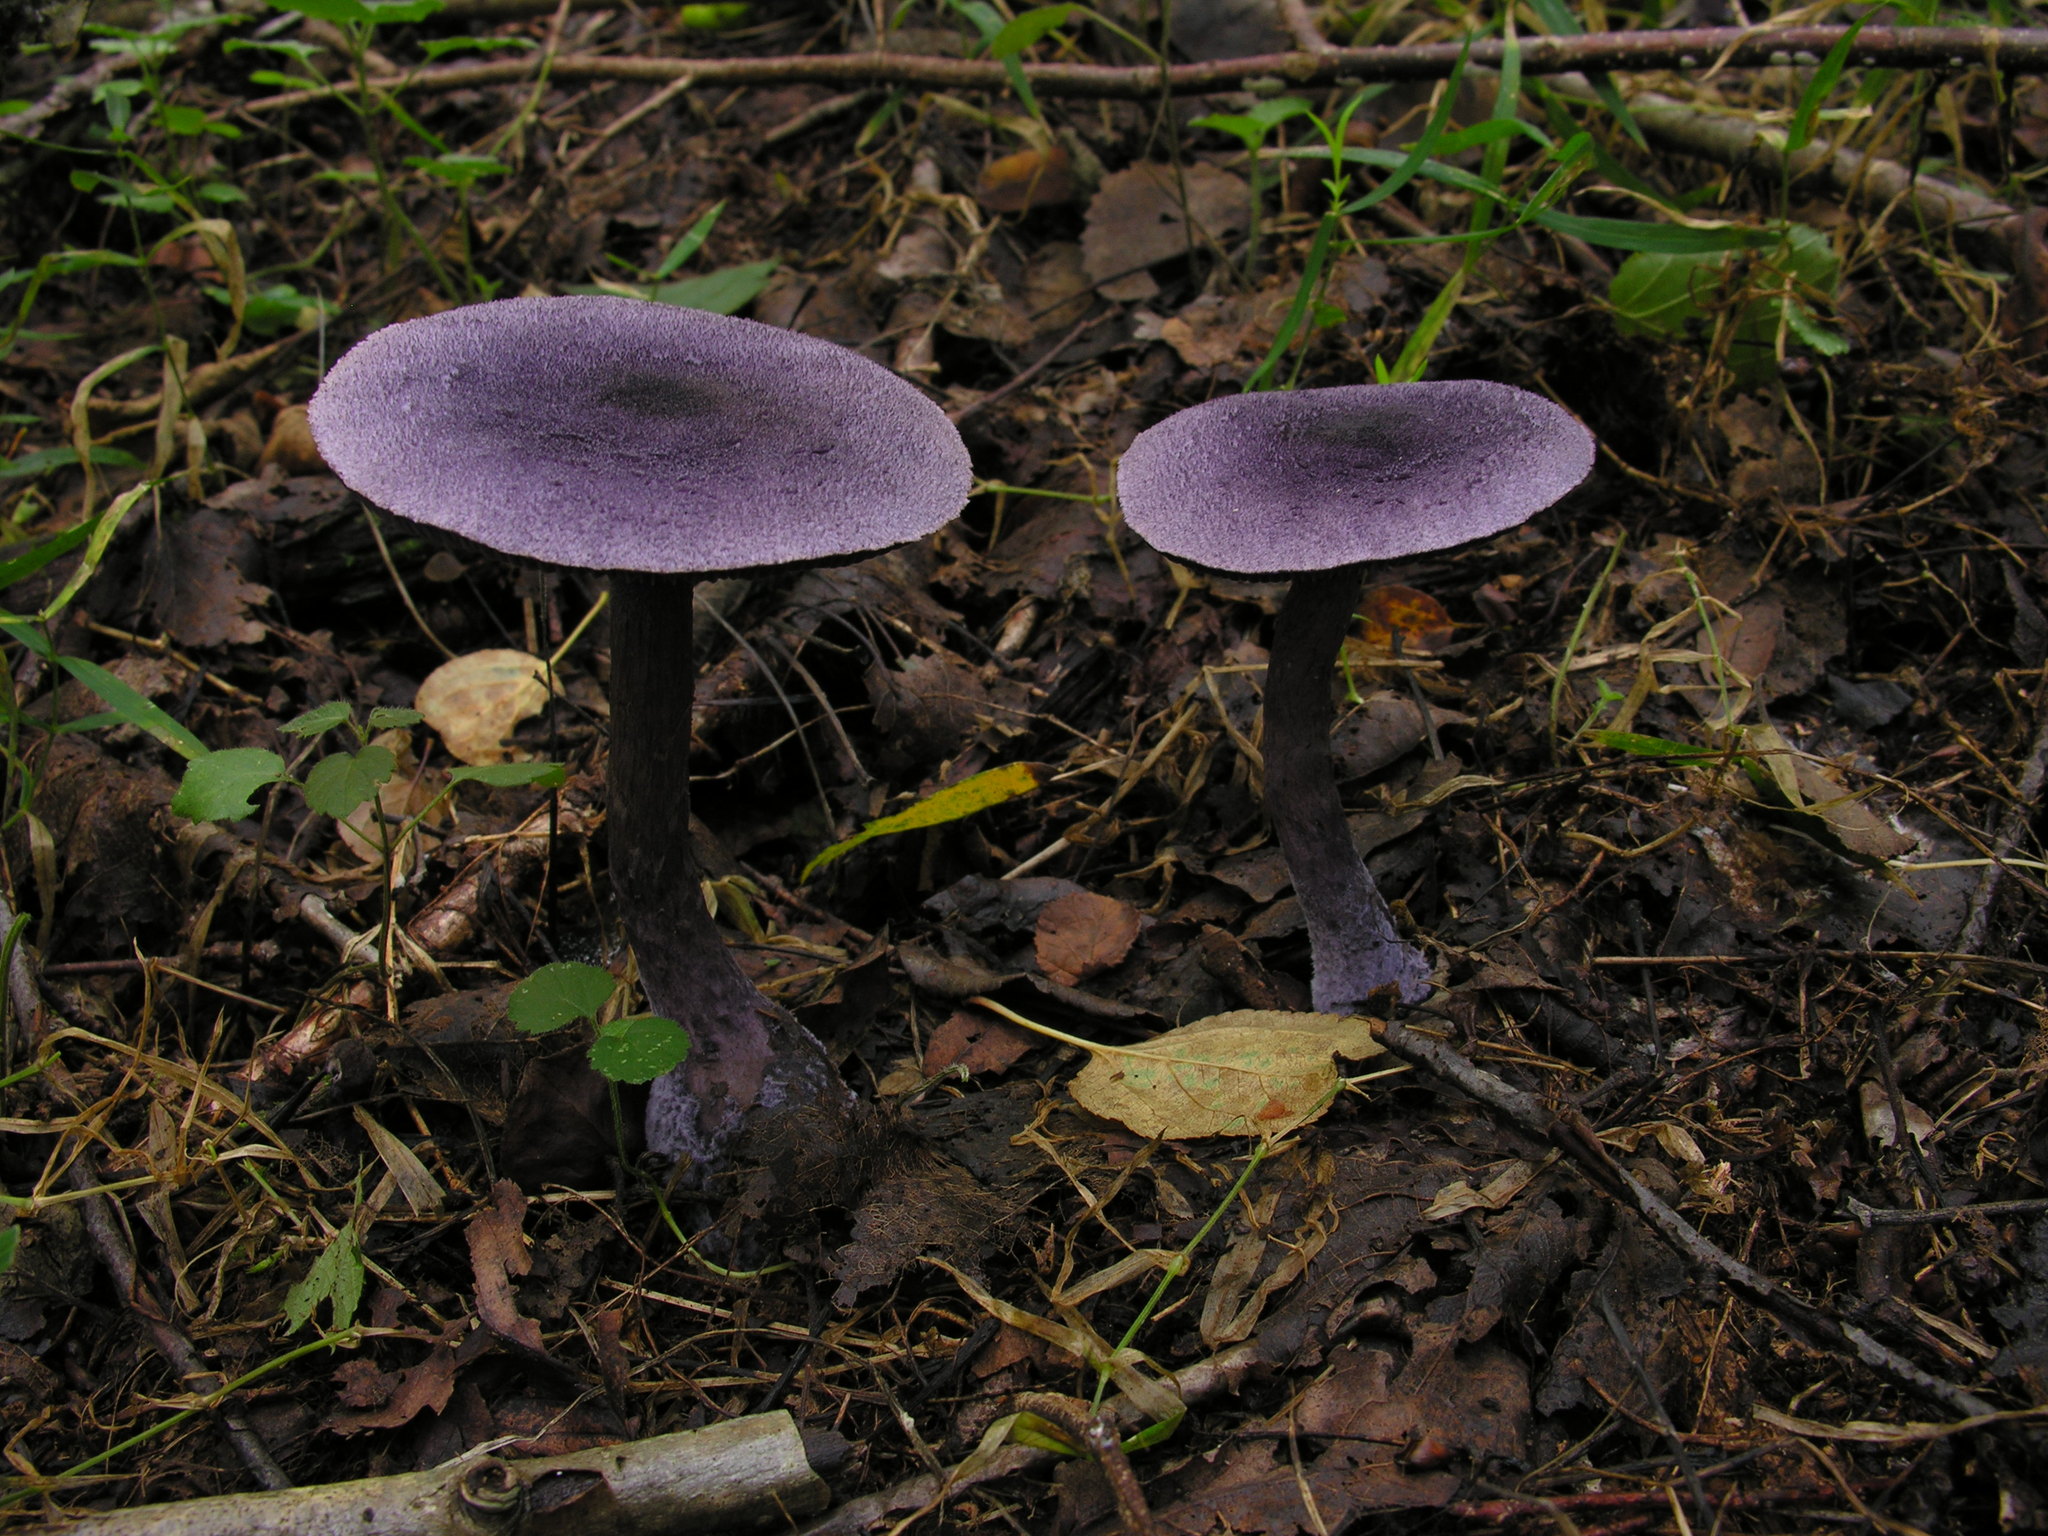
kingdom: Fungi
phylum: Basidiomycota
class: Agaricomycetes
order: Agaricales
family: Cortinariaceae
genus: Cortinarius
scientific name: Cortinarius violaceus
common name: Violet webcap
